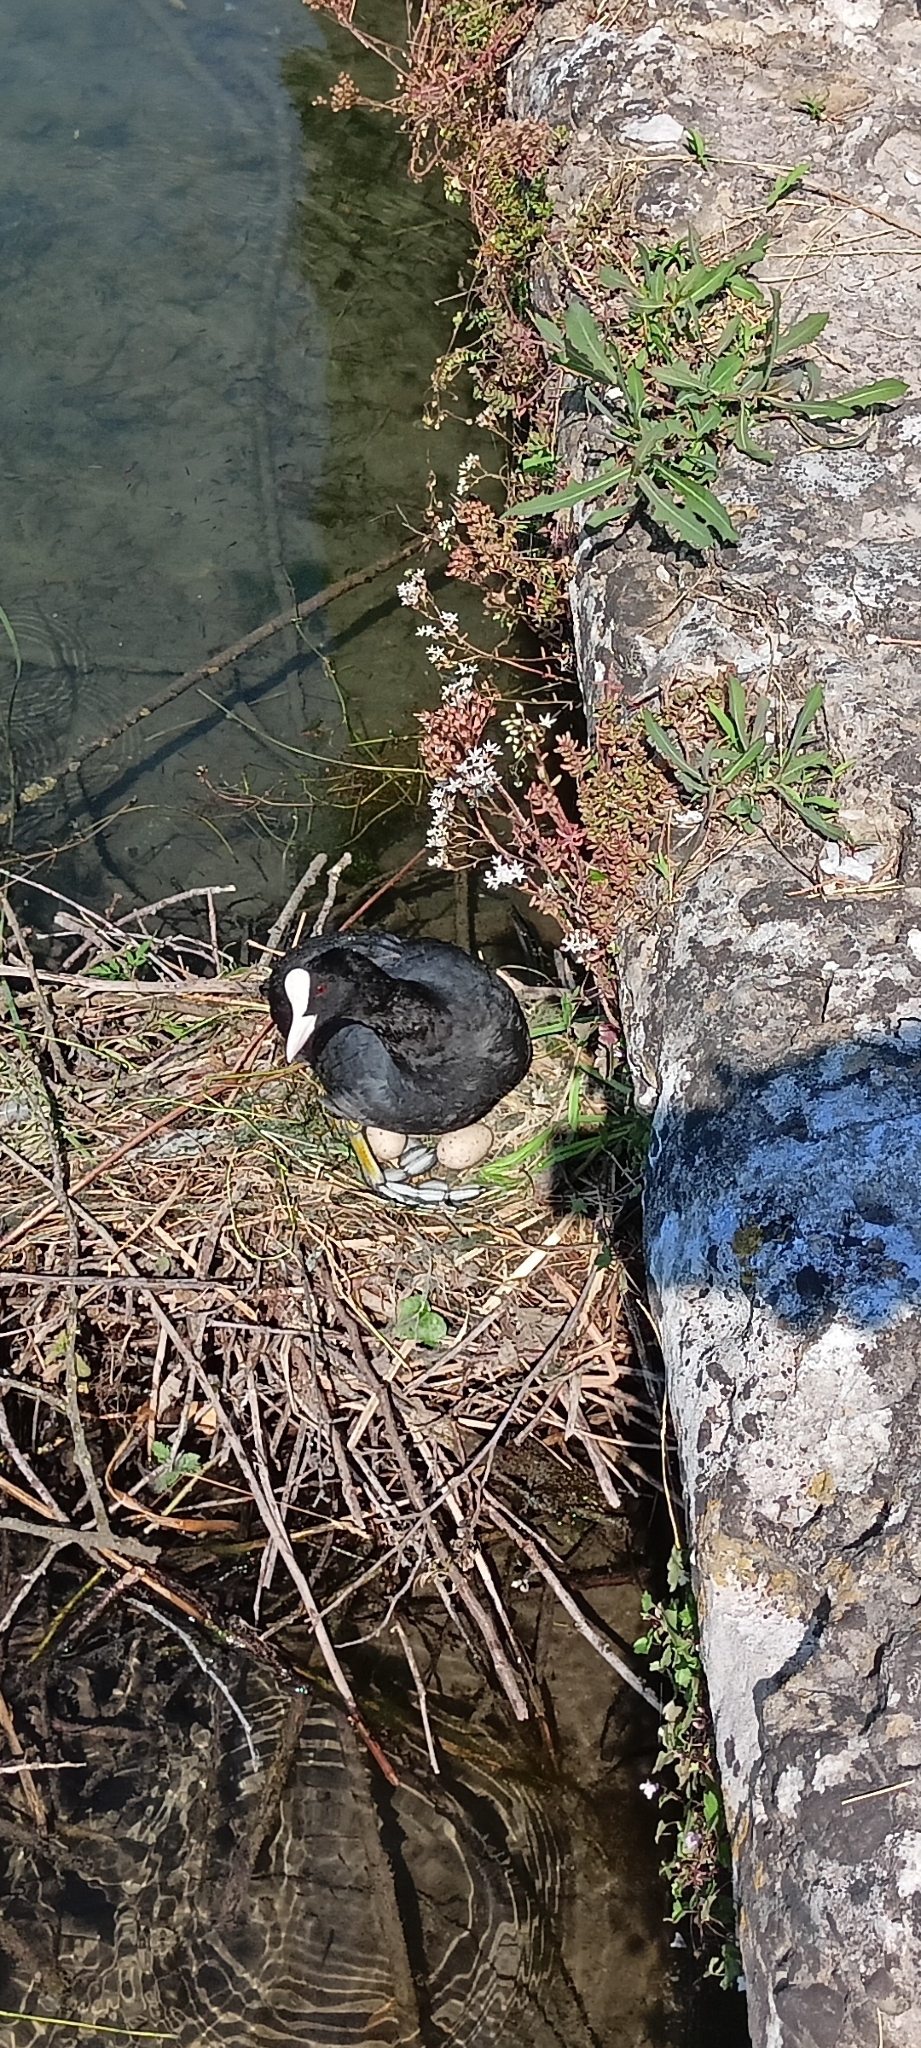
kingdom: Animalia
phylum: Chordata
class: Aves
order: Gruiformes
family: Rallidae
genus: Fulica
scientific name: Fulica atra
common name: Eurasian coot
